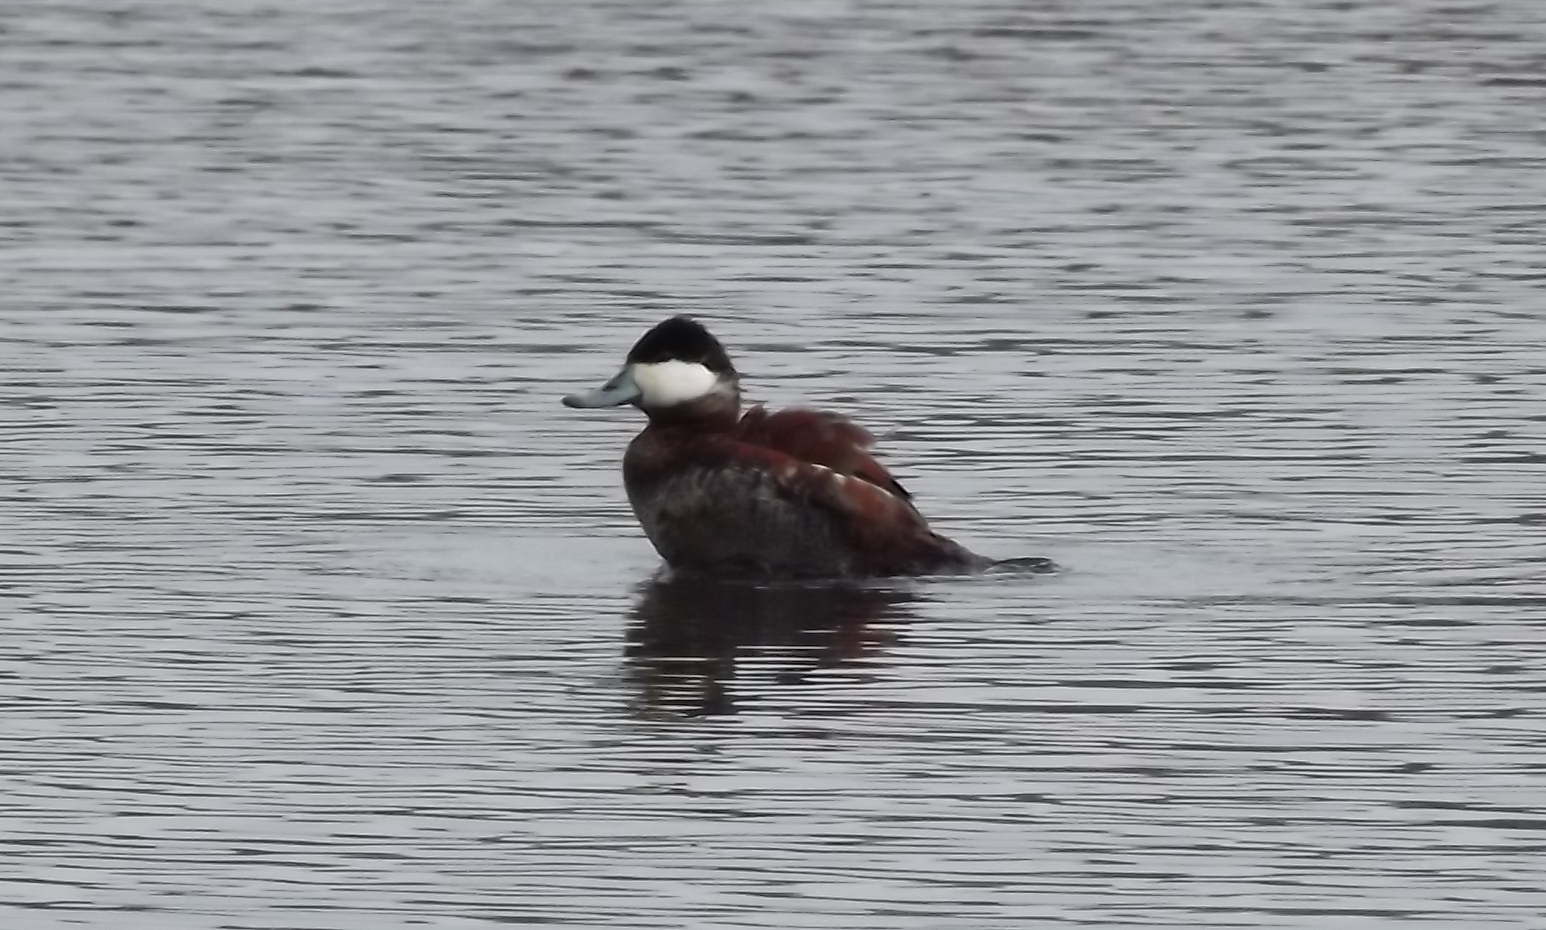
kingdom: Animalia
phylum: Chordata
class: Aves
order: Anseriformes
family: Anatidae
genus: Oxyura
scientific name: Oxyura jamaicensis
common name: Ruddy duck
